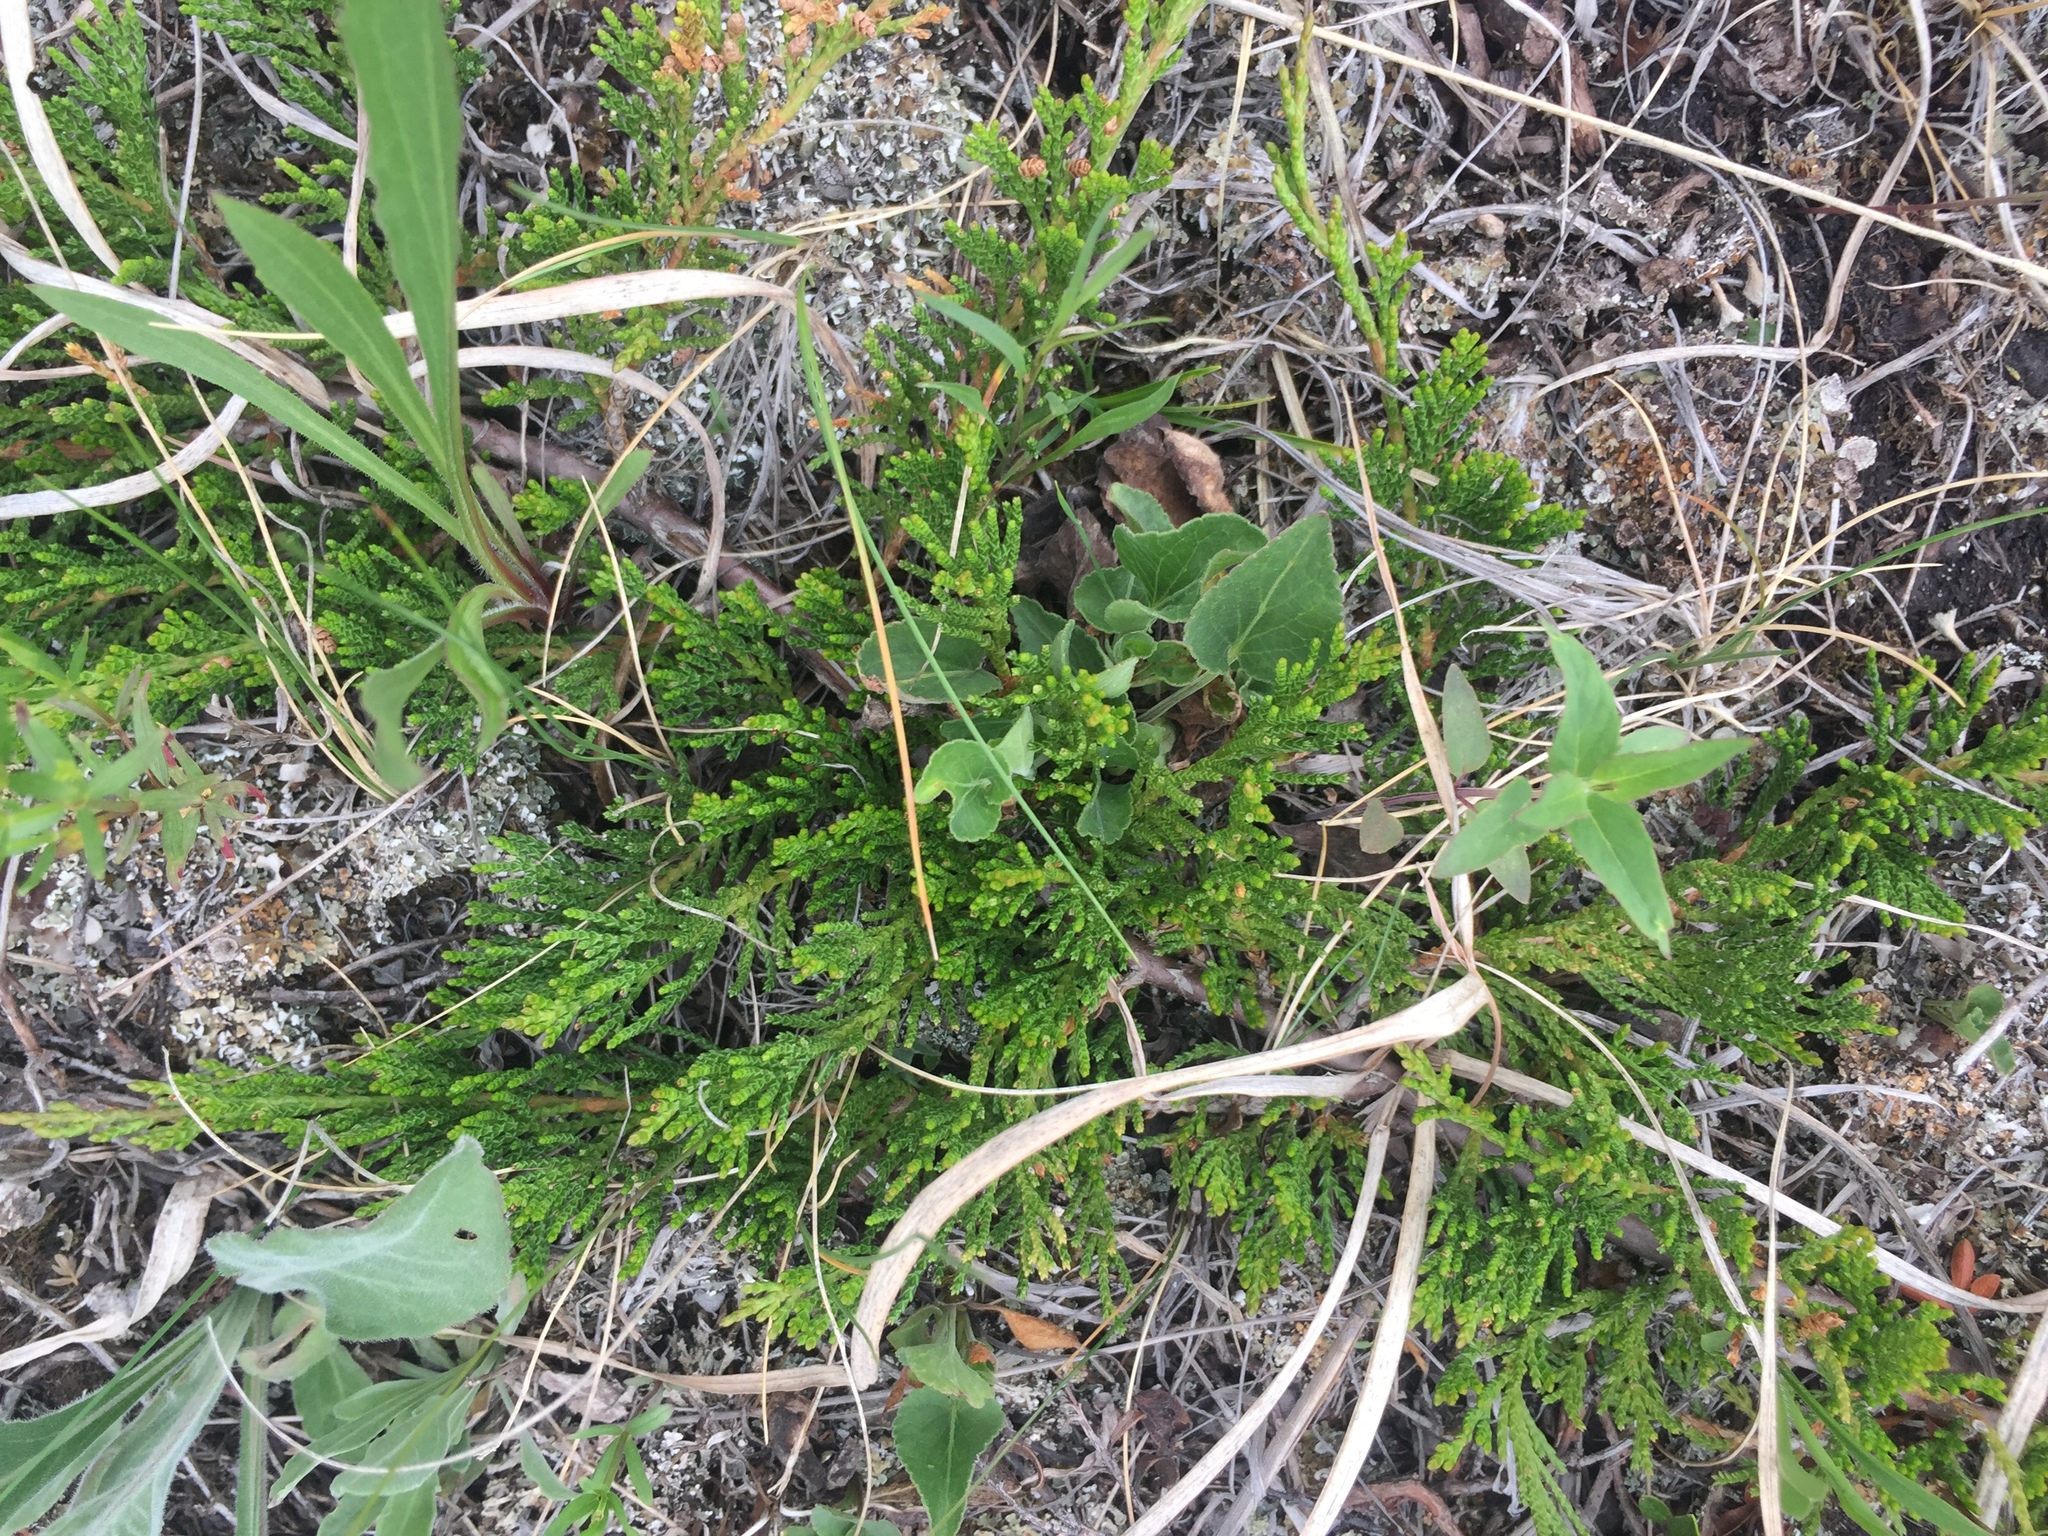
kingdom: Plantae
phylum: Tracheophyta
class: Pinopsida
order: Pinales
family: Cupressaceae
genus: Juniperus
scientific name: Juniperus horizontalis
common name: Creeping juniper
